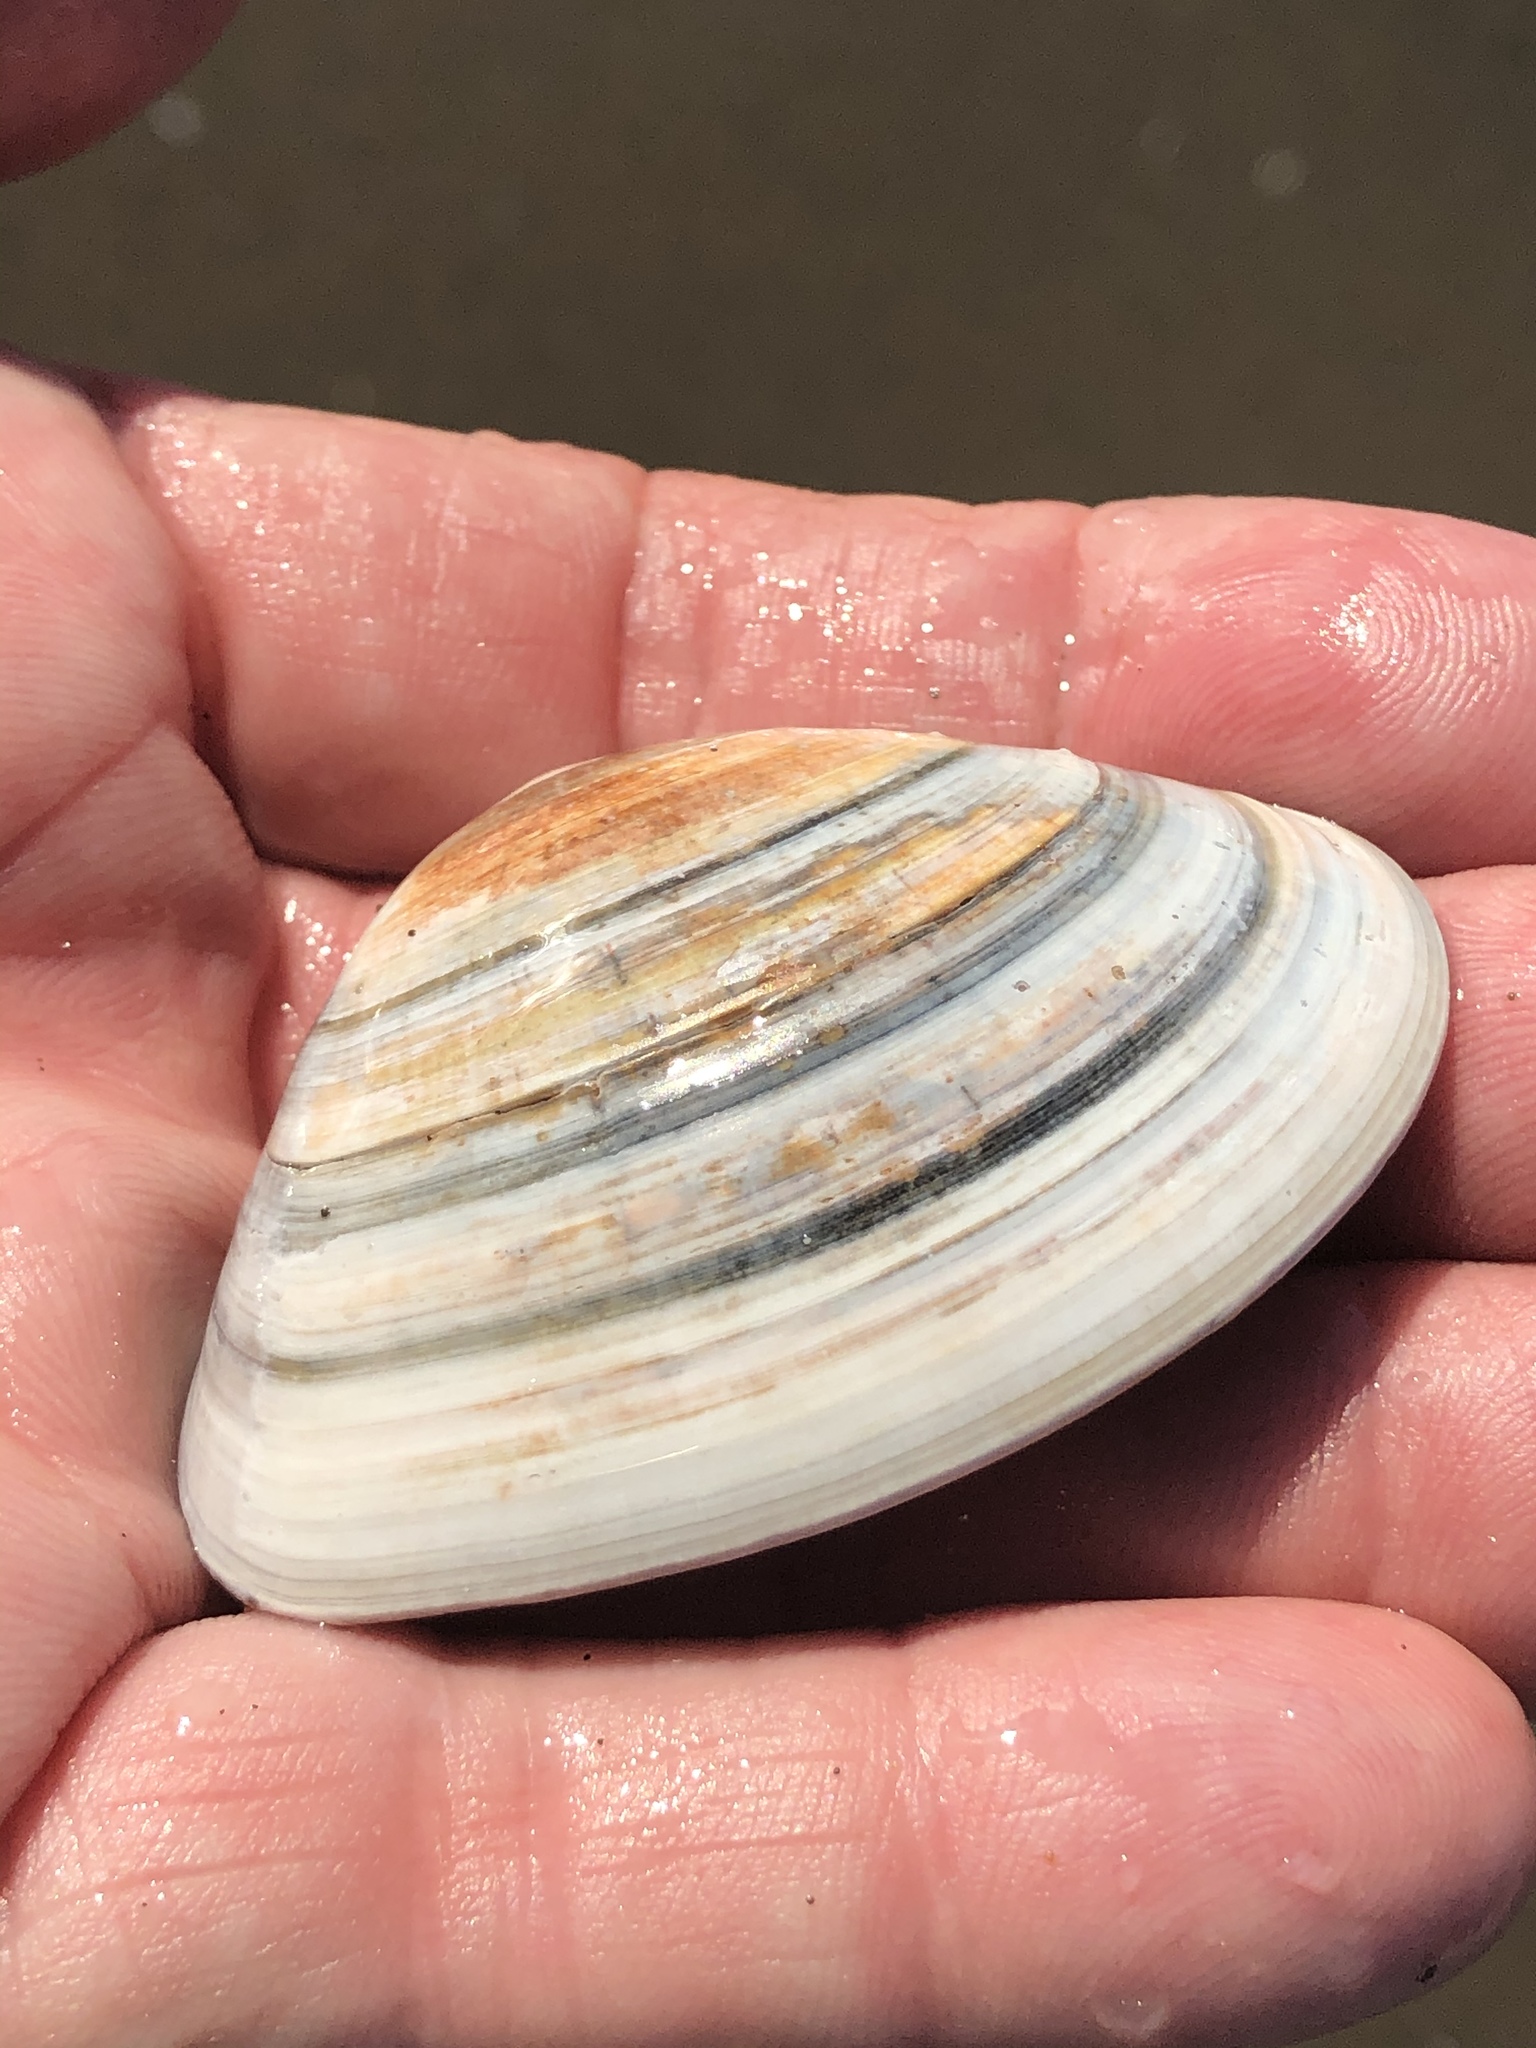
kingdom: Animalia
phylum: Mollusca
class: Bivalvia
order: Venerida
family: Veneridae
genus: Tivela
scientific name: Tivela stultorum
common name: Pismo clam
